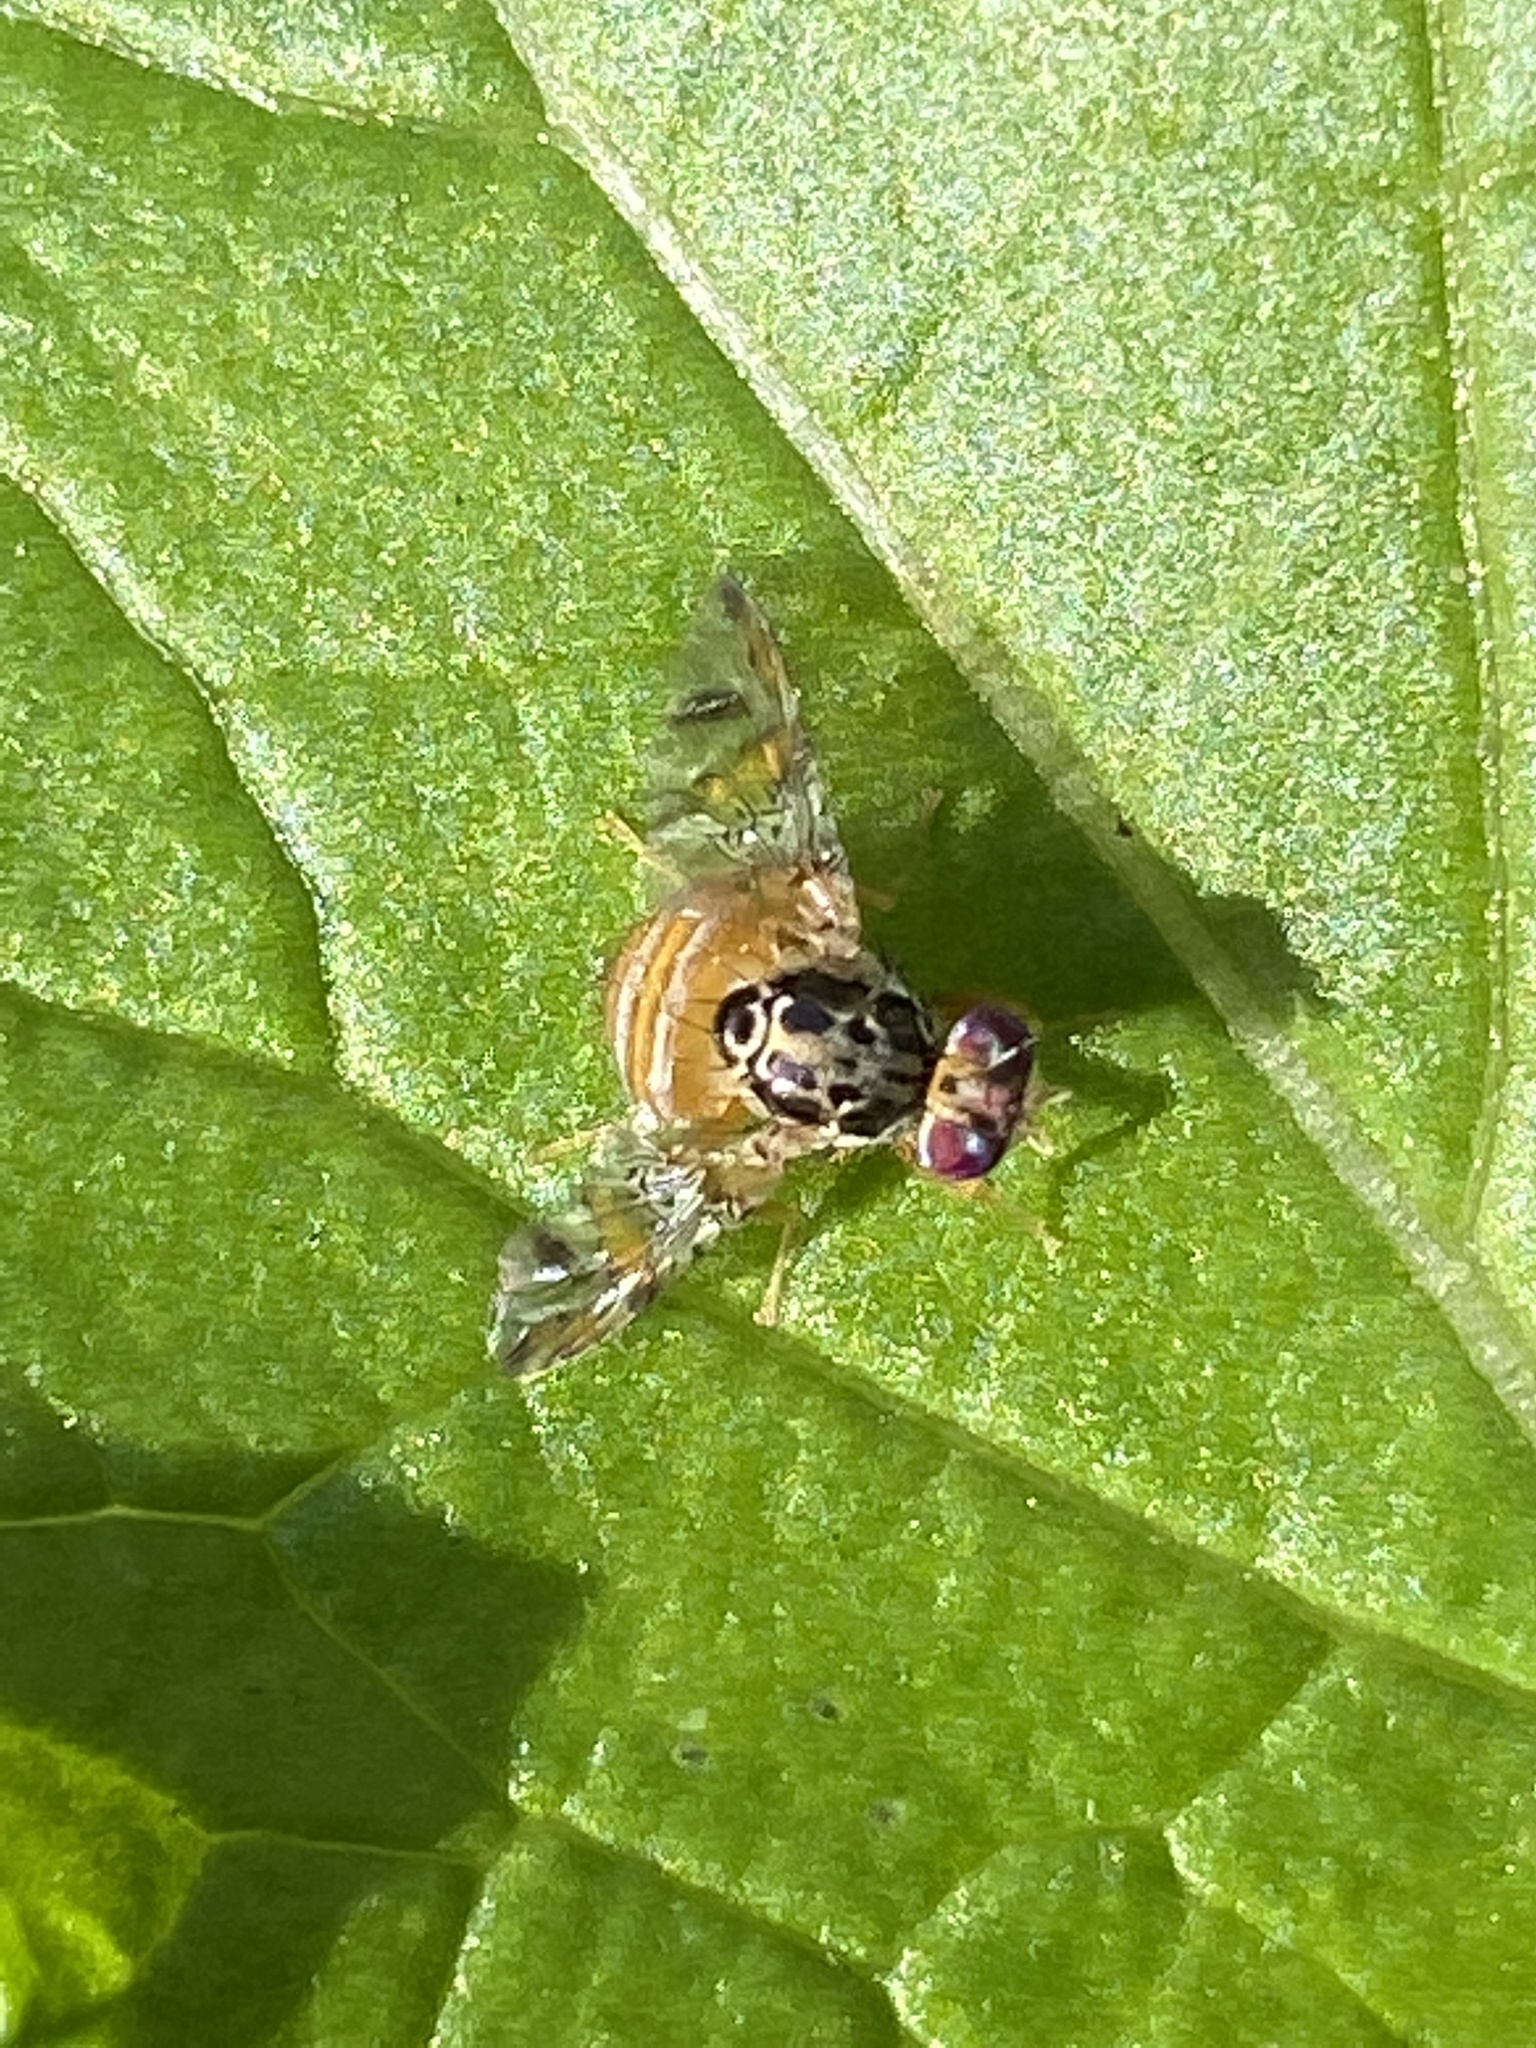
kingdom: Animalia
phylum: Arthropoda
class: Insecta
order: Diptera
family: Tephritidae
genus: Ceratitis
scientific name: Ceratitis capitata
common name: Mediterranean fruit fly
